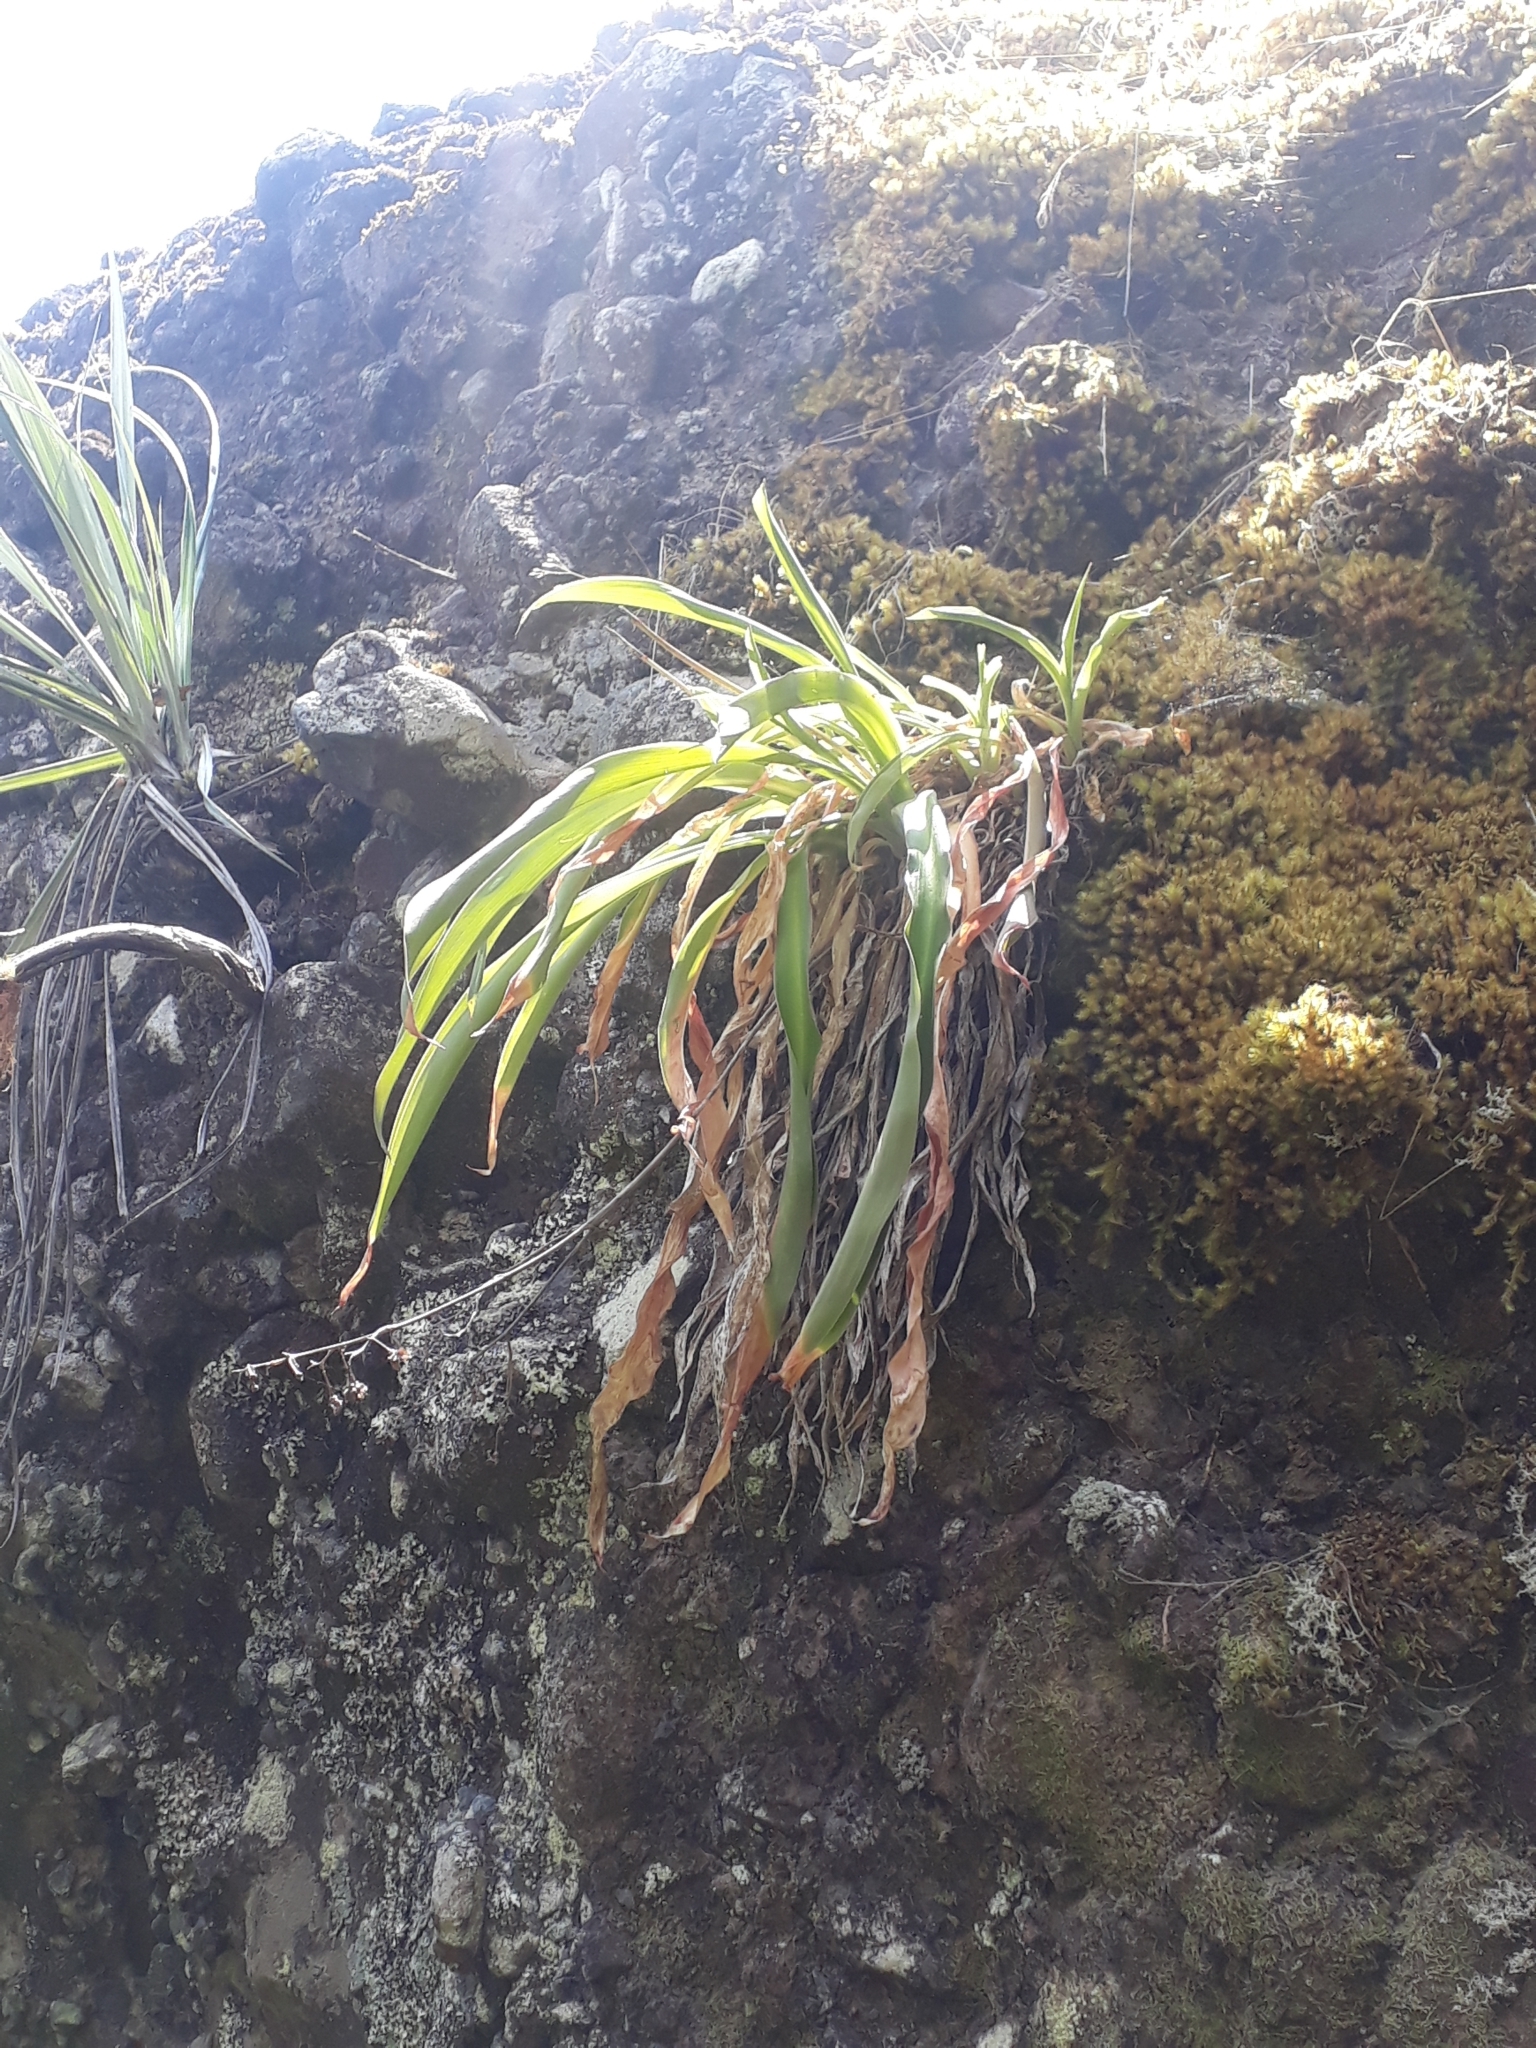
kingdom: Plantae
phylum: Tracheophyta
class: Liliopsida
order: Asparagales
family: Asparagaceae
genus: Arthropodium
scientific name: Arthropodium cirratum
